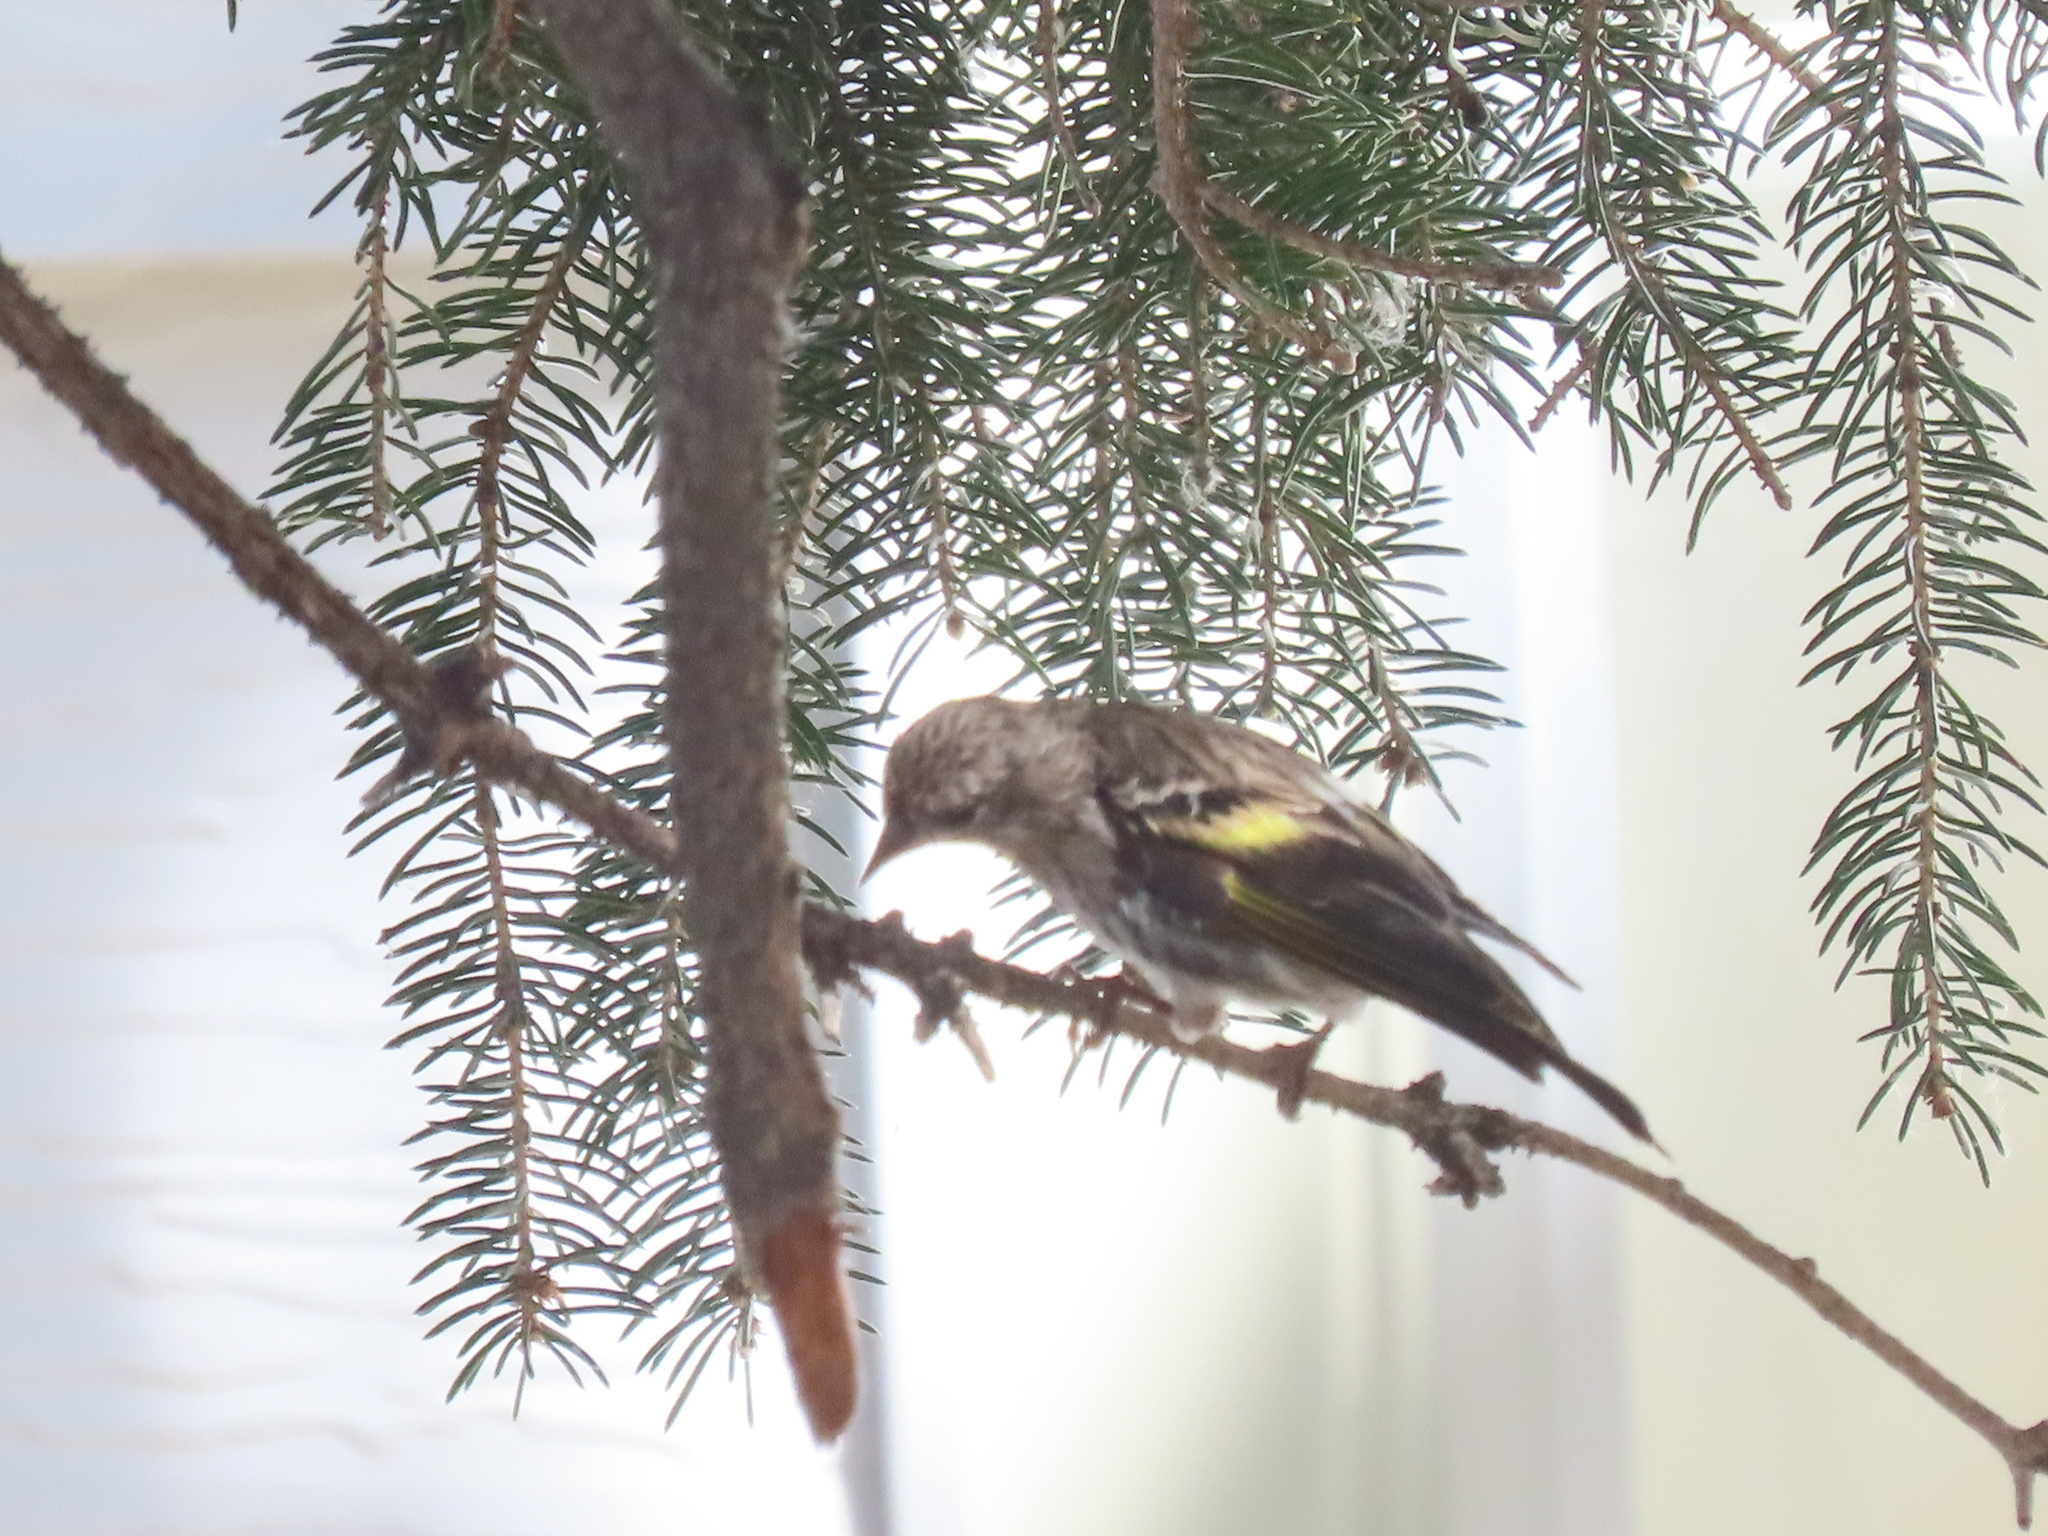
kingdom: Animalia
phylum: Chordata
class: Aves
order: Passeriformes
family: Fringillidae
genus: Spinus
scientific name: Spinus pinus
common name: Pine siskin
